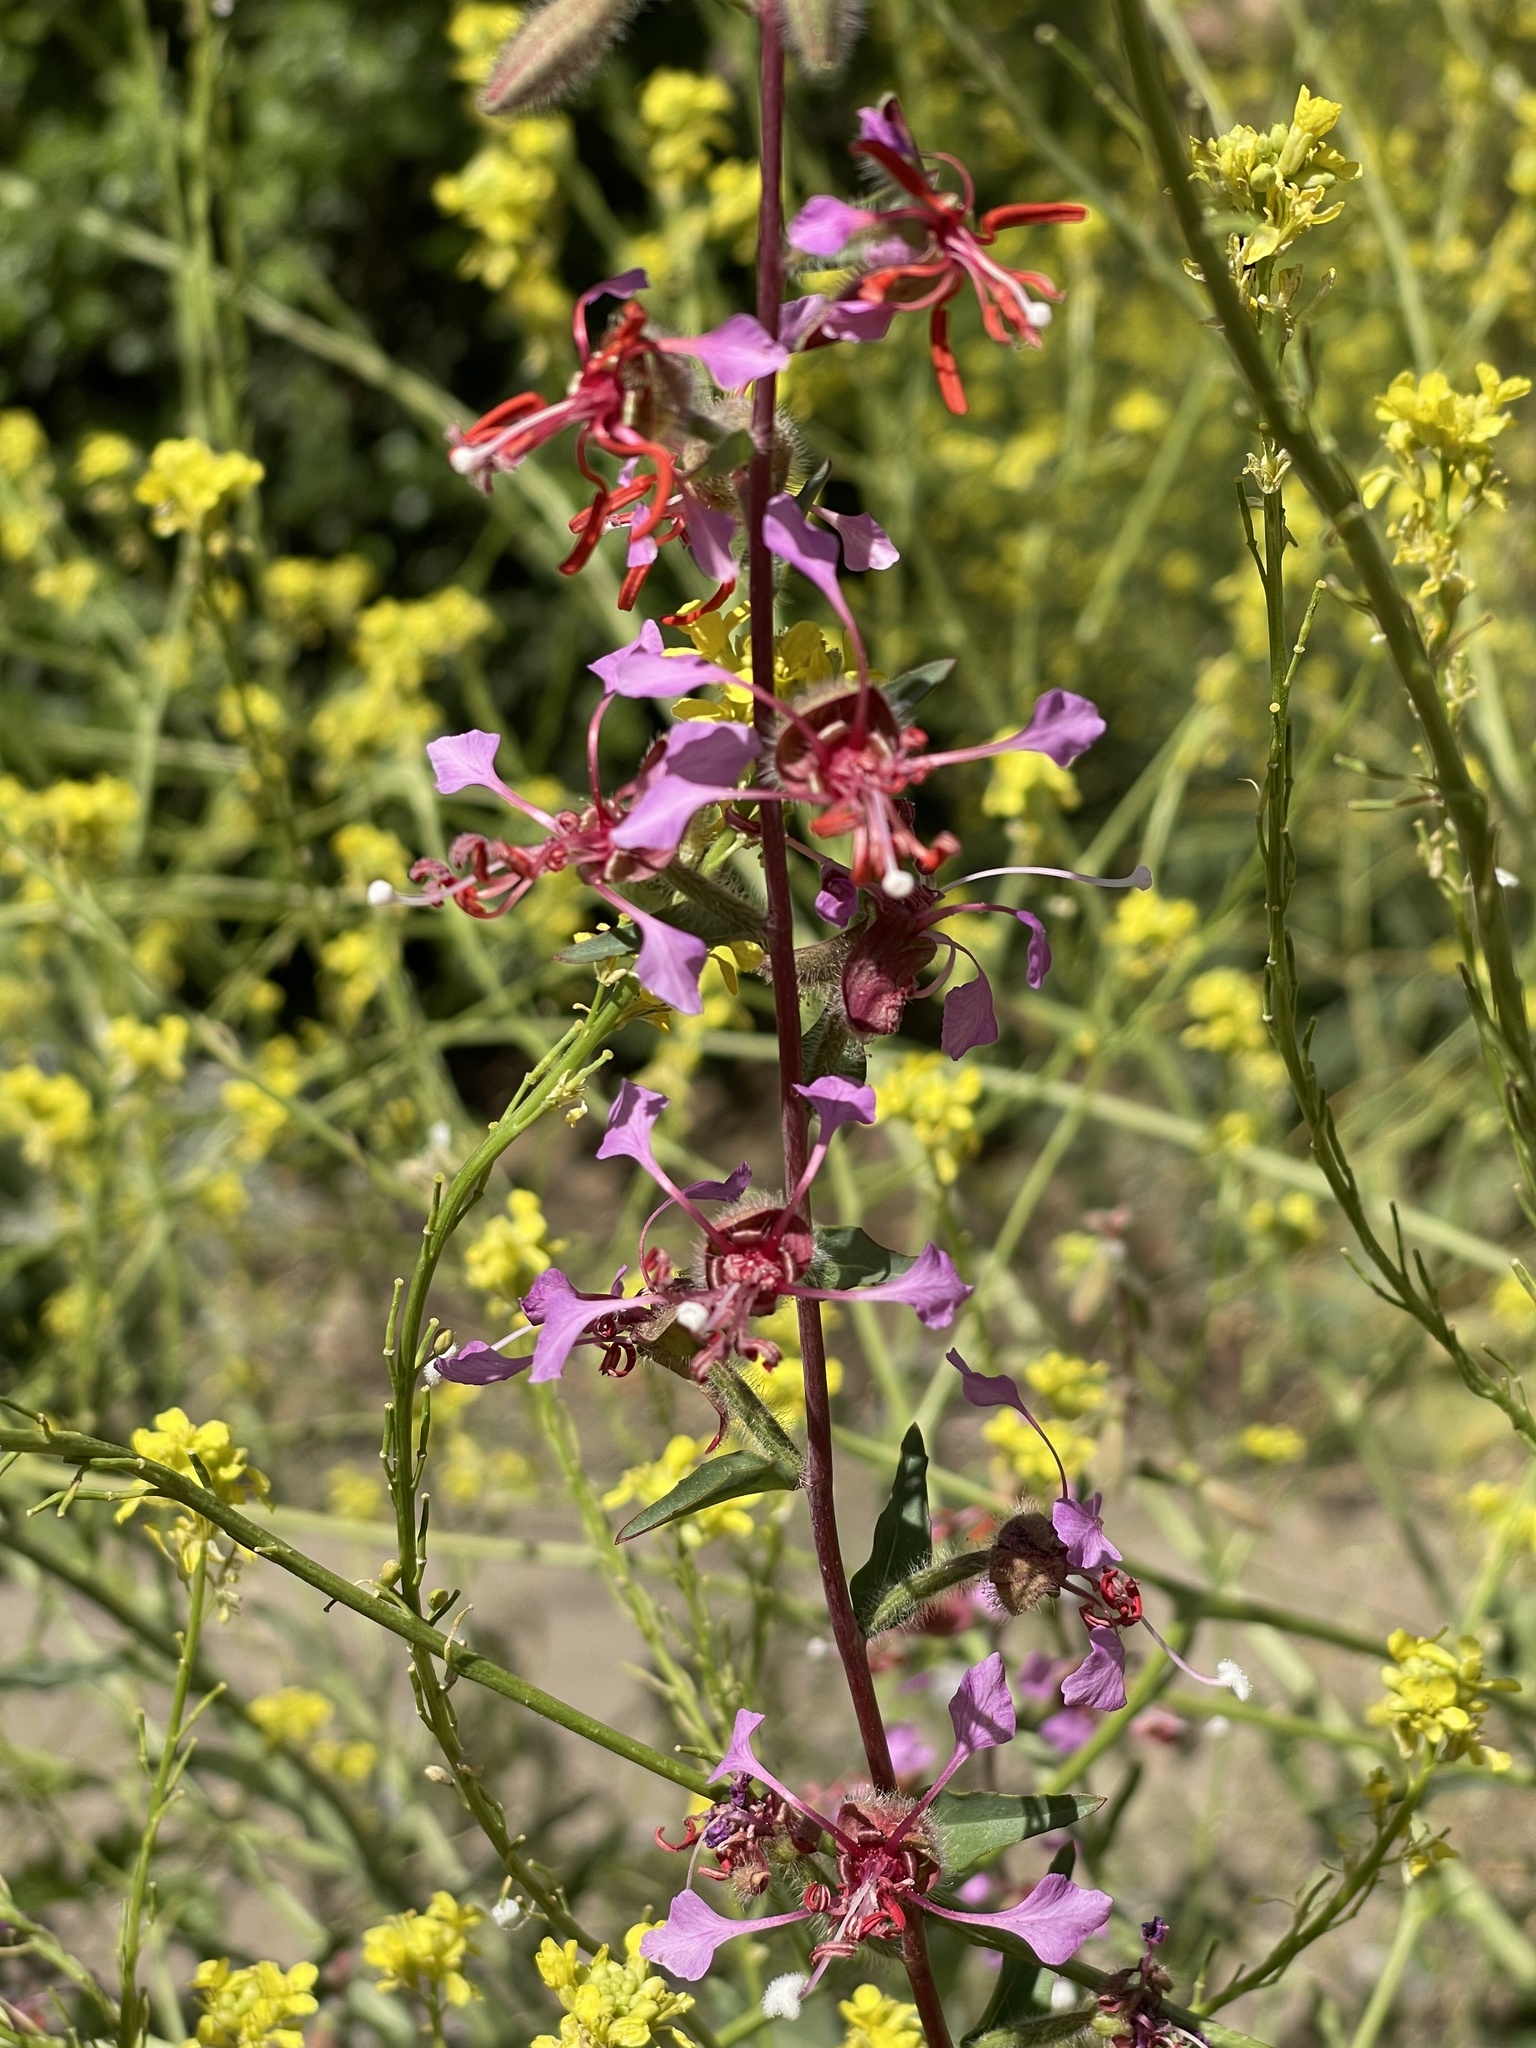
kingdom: Plantae
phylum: Tracheophyta
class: Magnoliopsida
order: Myrtales
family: Onagraceae
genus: Clarkia
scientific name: Clarkia unguiculata
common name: Clarkia
